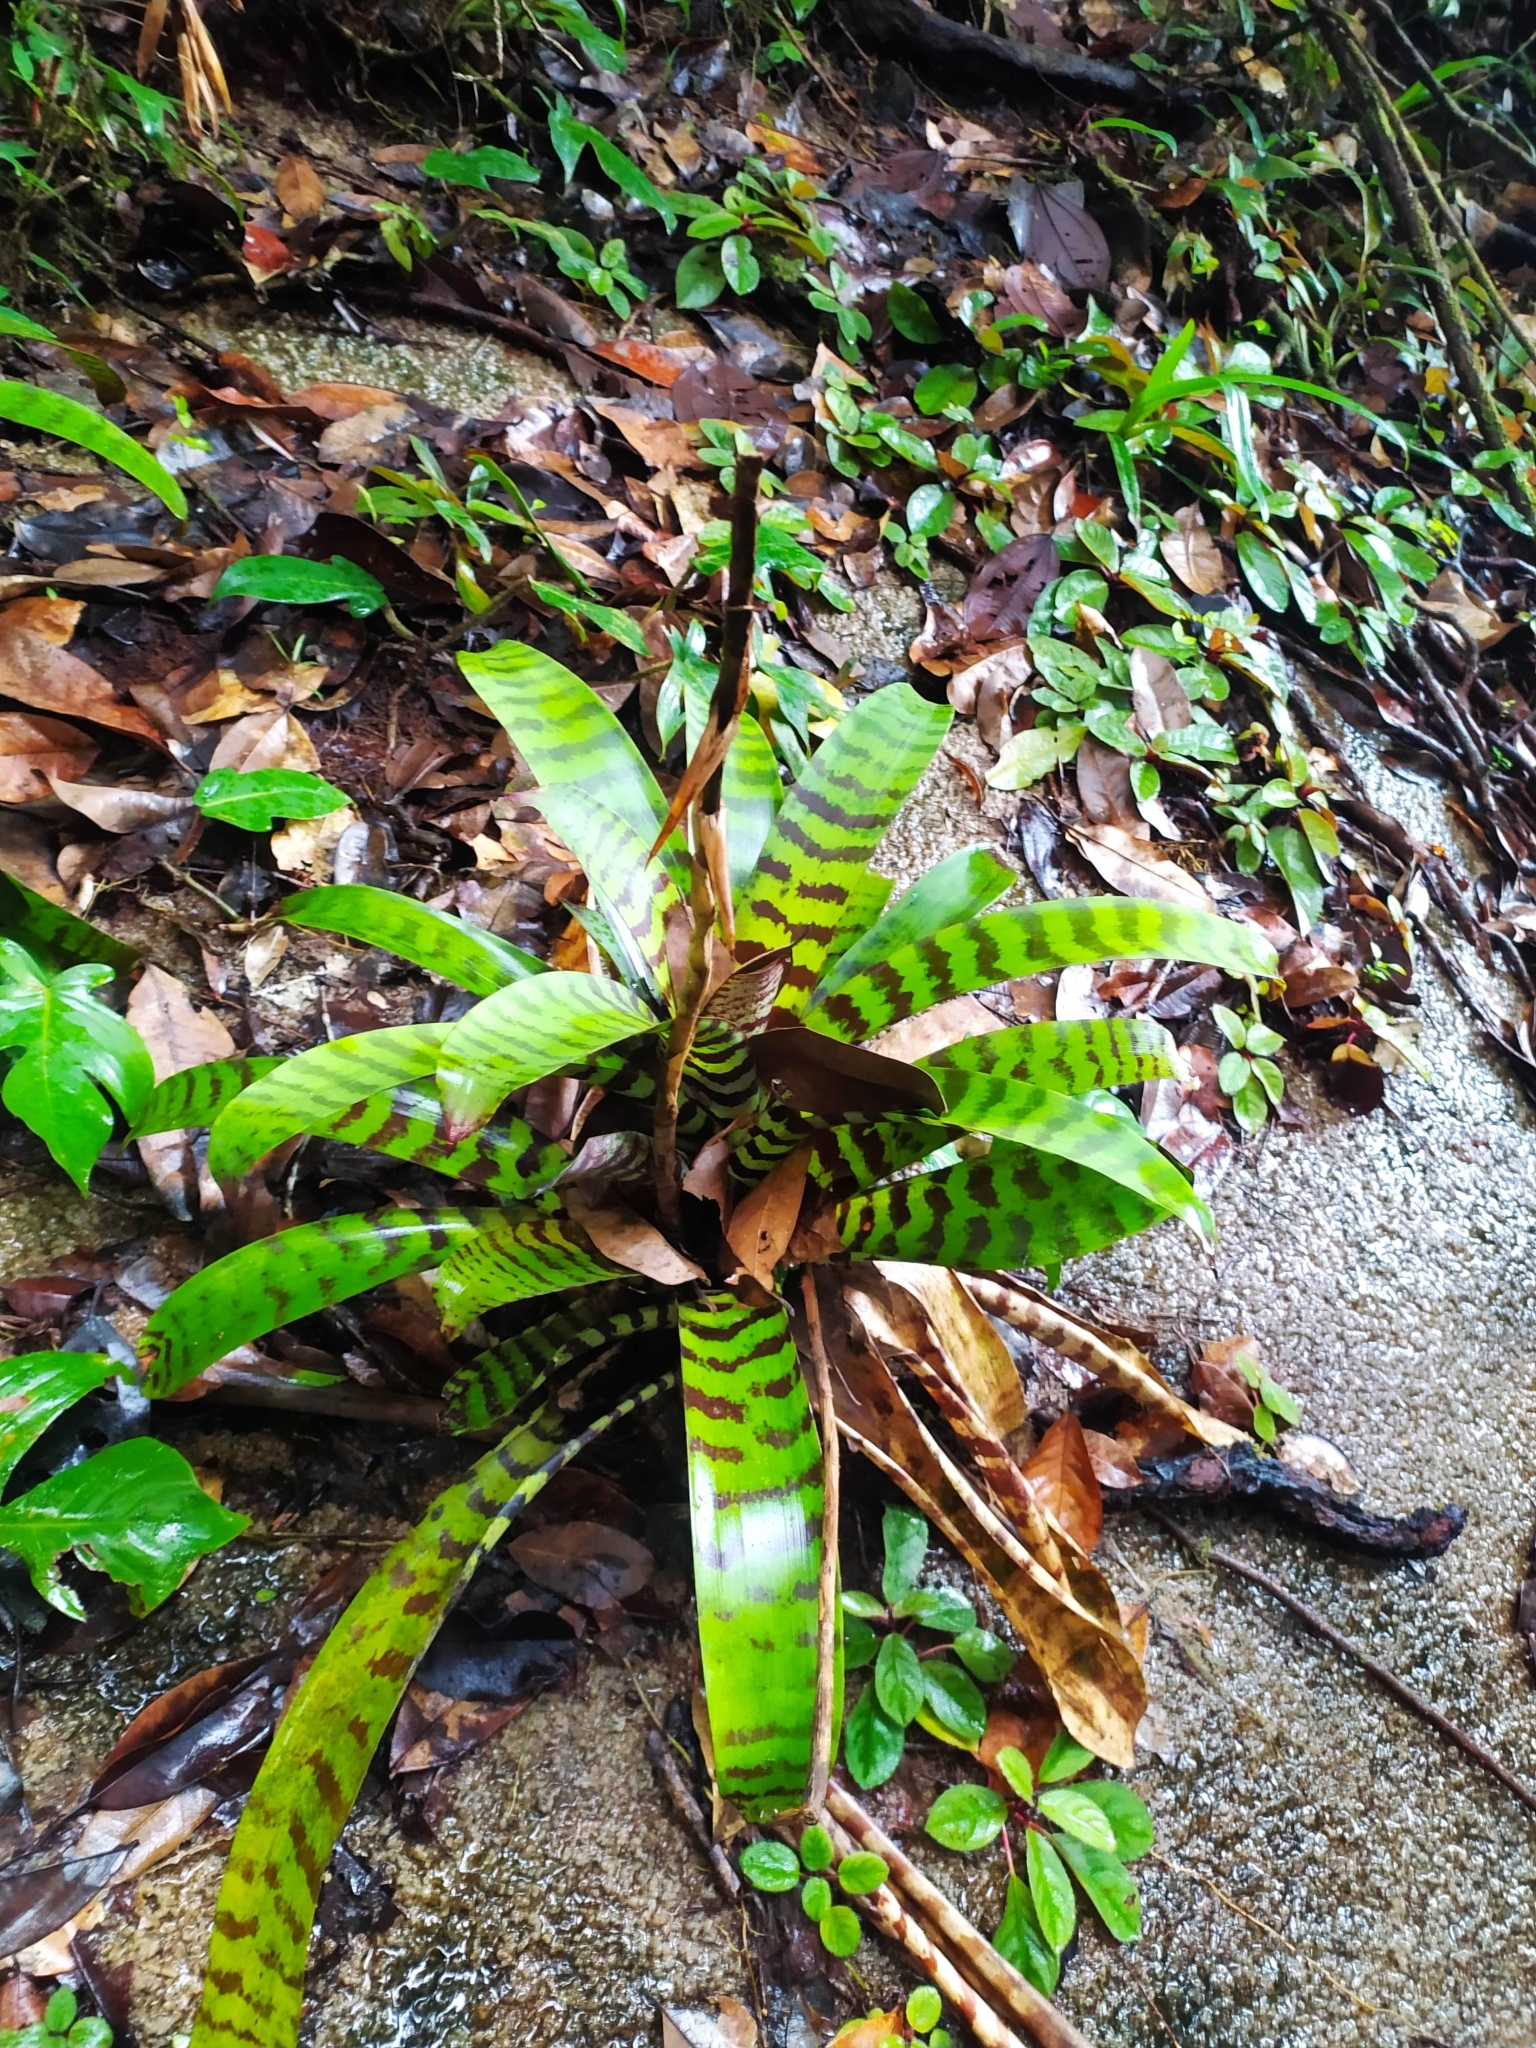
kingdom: Plantae
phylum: Tracheophyta
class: Liliopsida
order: Poales
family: Bromeliaceae
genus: Lutheria
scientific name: Lutheria splendens
